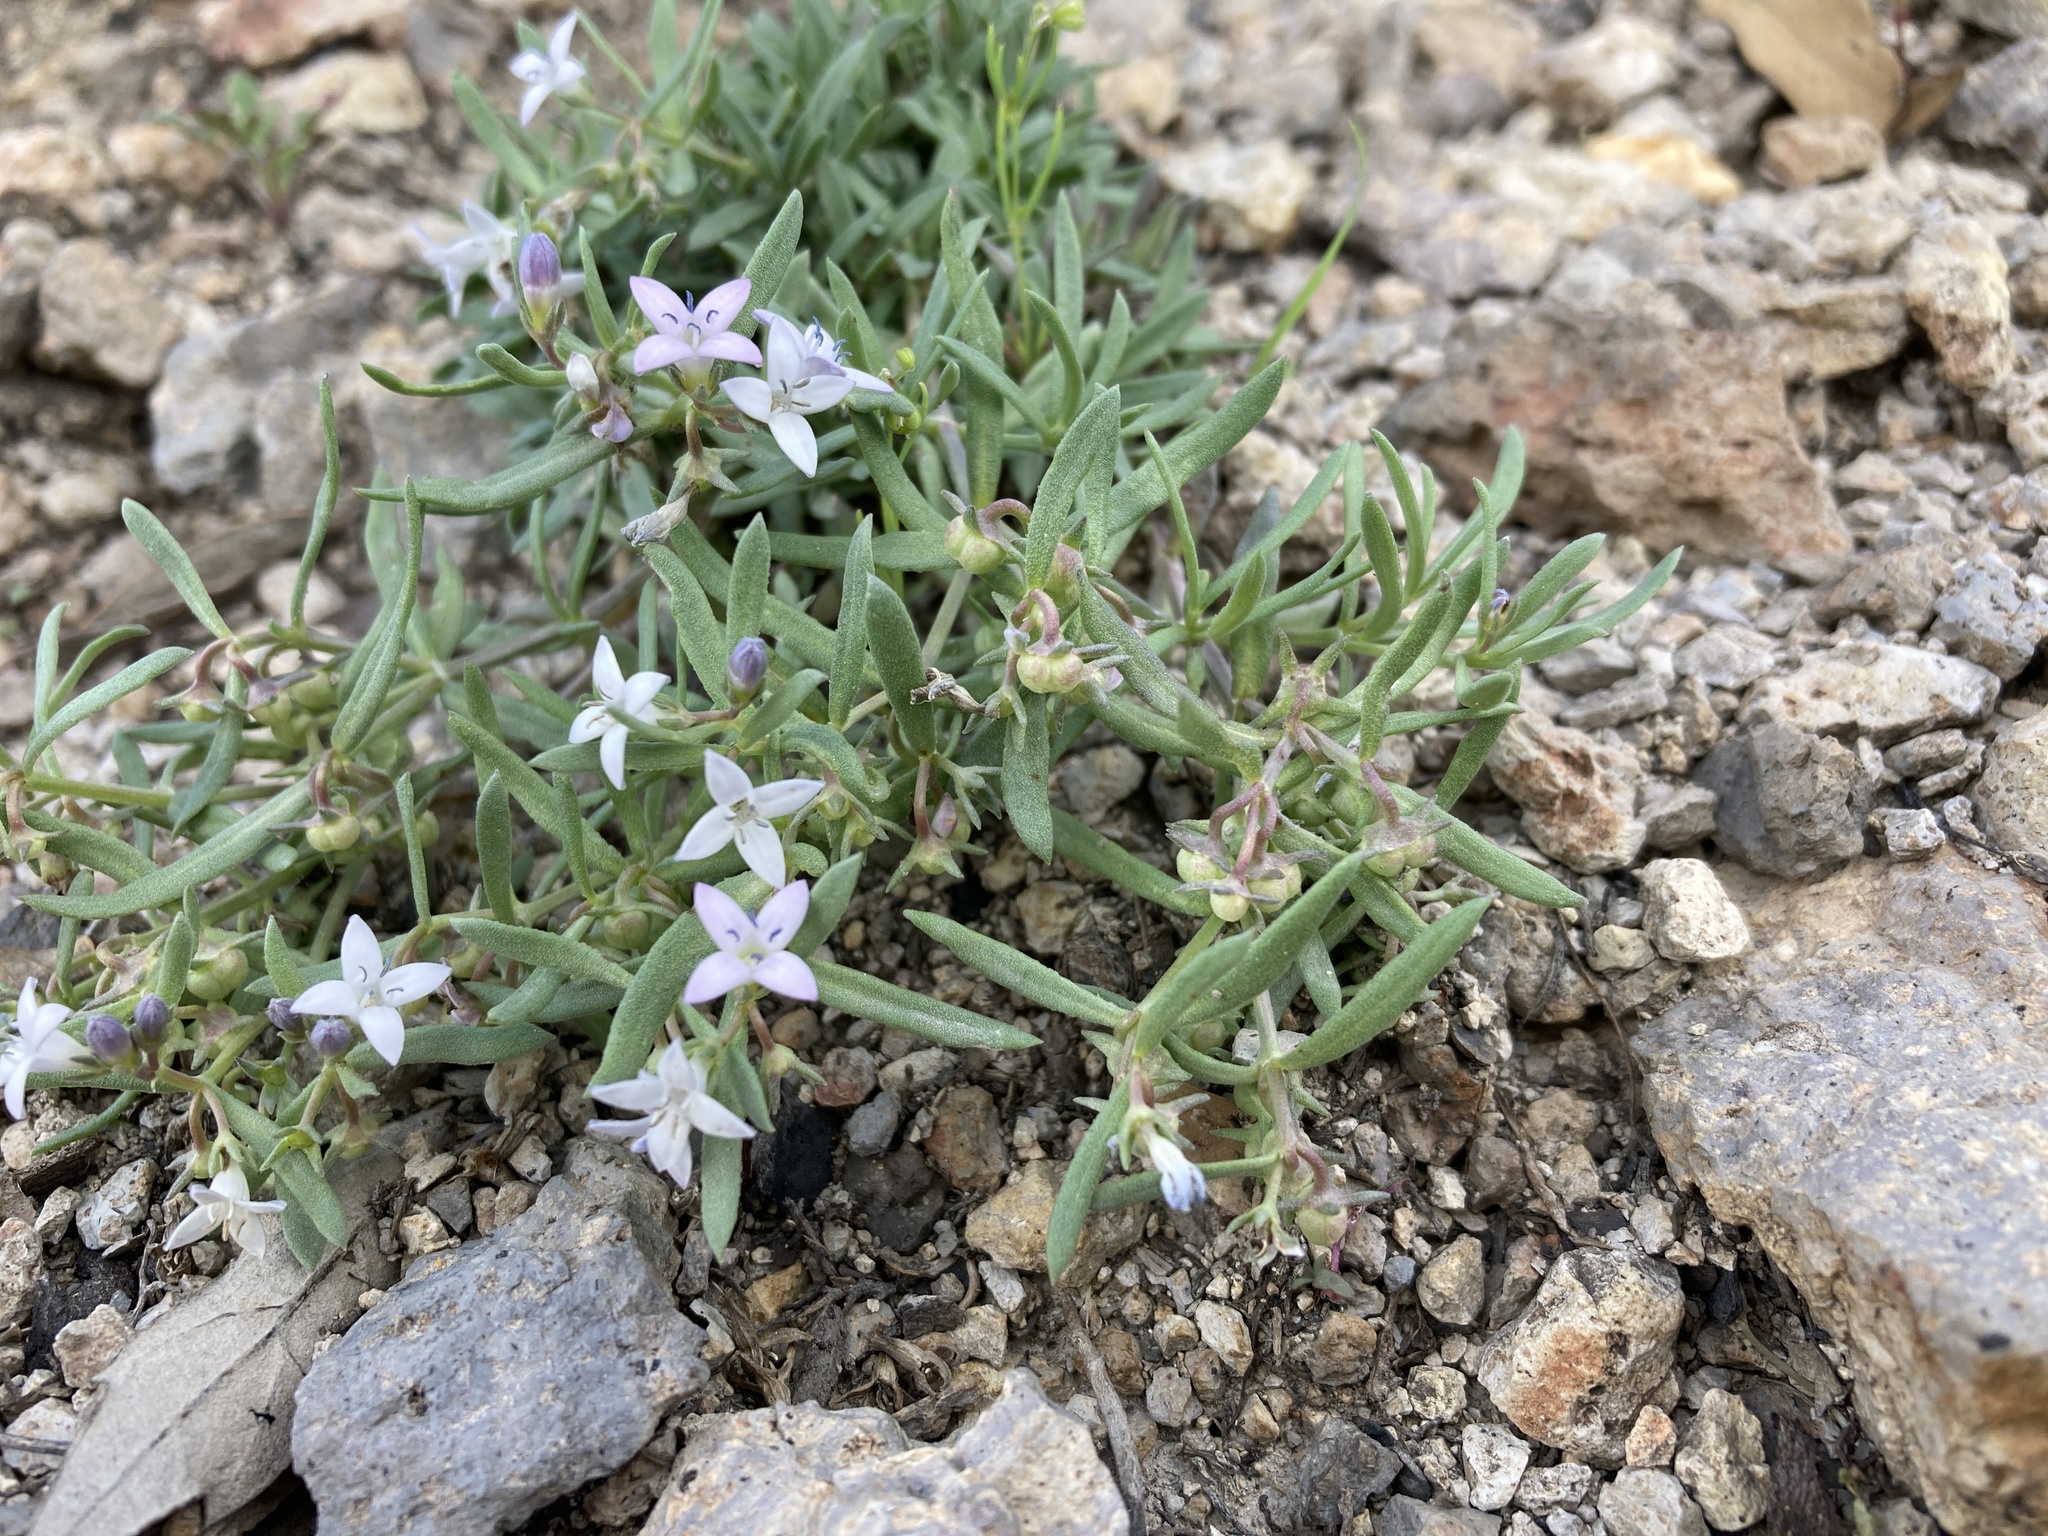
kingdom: Plantae
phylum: Tracheophyta
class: Magnoliopsida
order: Gentianales
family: Rubiaceae
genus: Houstonia
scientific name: Houstonia wrightii
